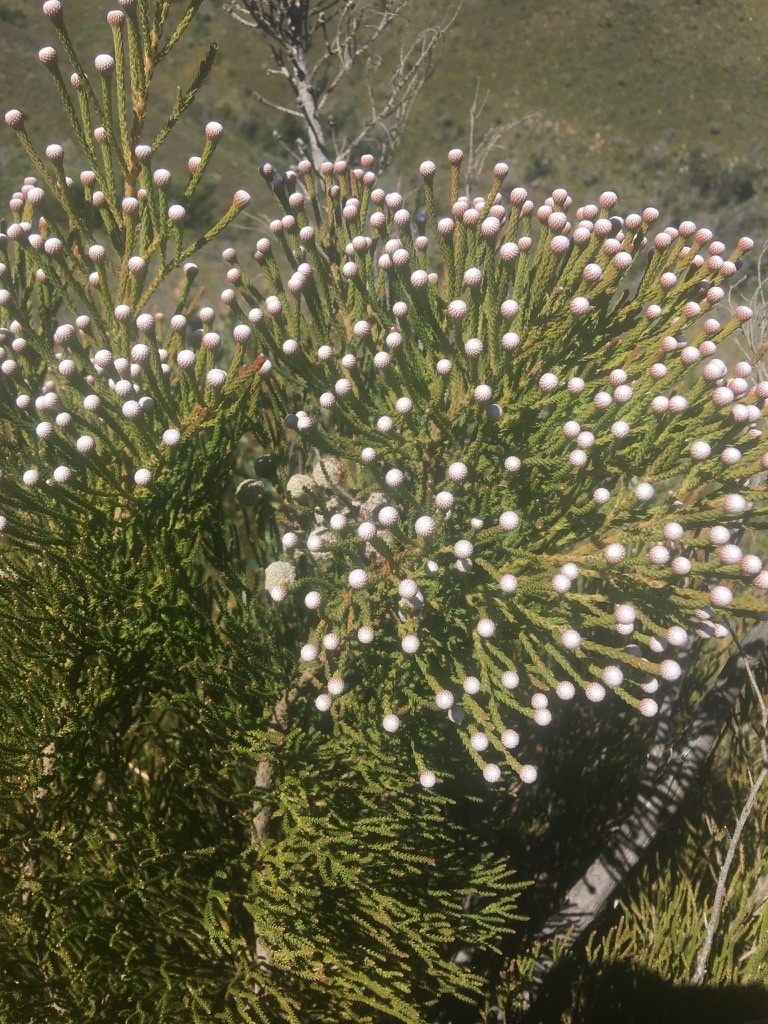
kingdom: Plantae
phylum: Tracheophyta
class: Magnoliopsida
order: Bruniales
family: Bruniaceae
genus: Brunia
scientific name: Brunia noduliflora
